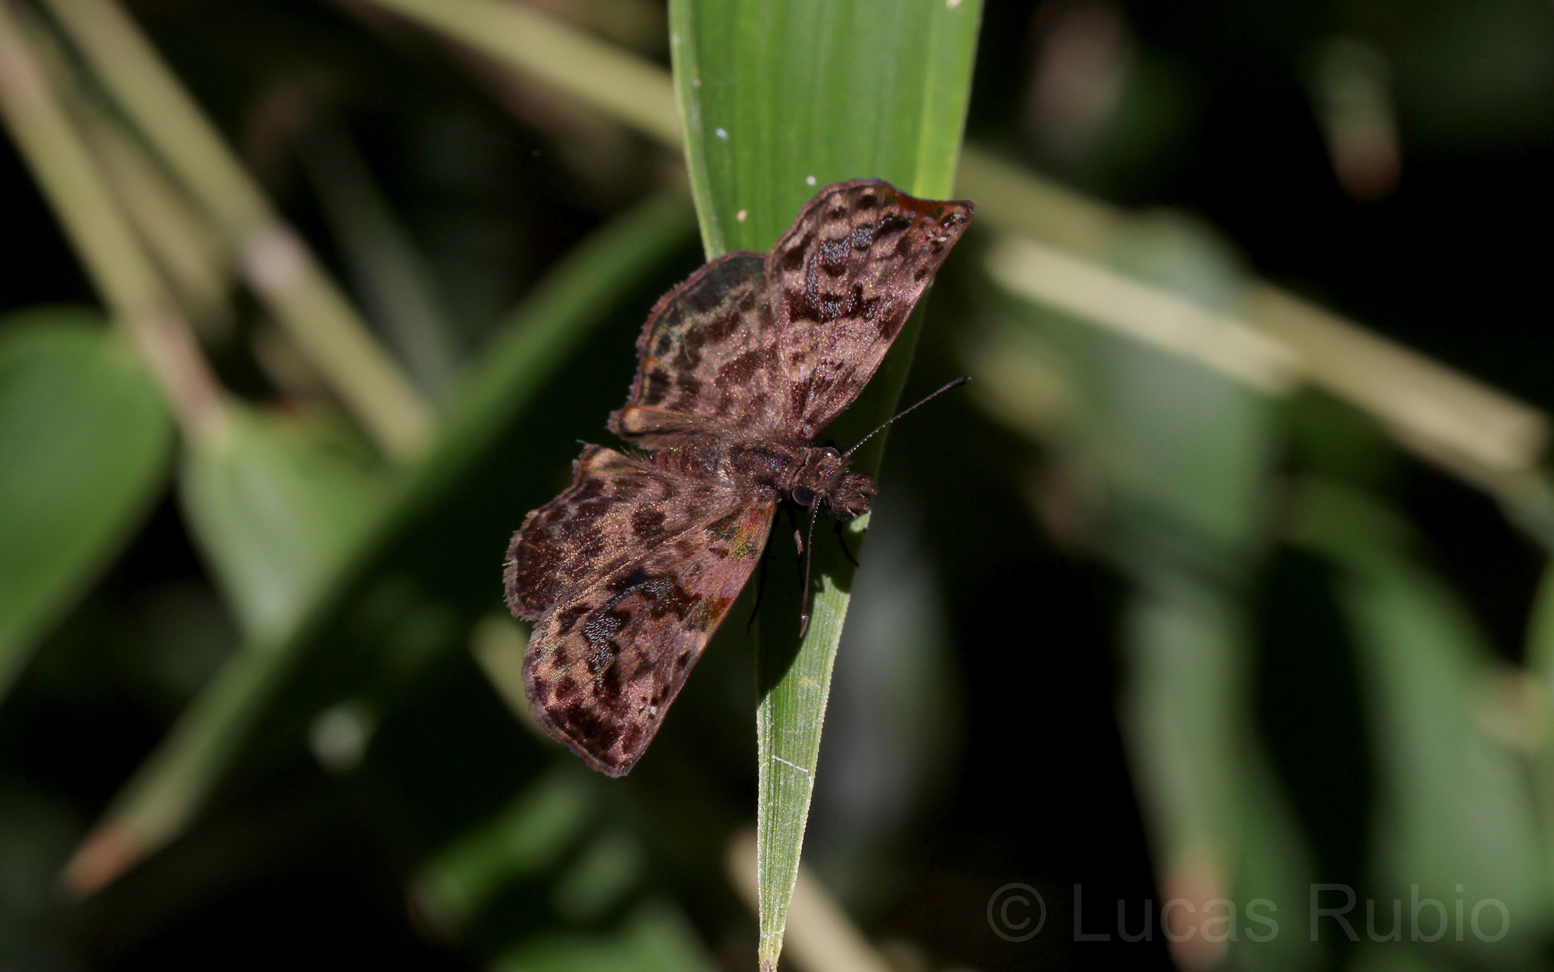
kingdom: Animalia
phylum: Arthropoda
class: Insecta
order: Lepidoptera
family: Hesperiidae
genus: Gorgythion
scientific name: Gorgythion begga
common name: Variegated skipper
